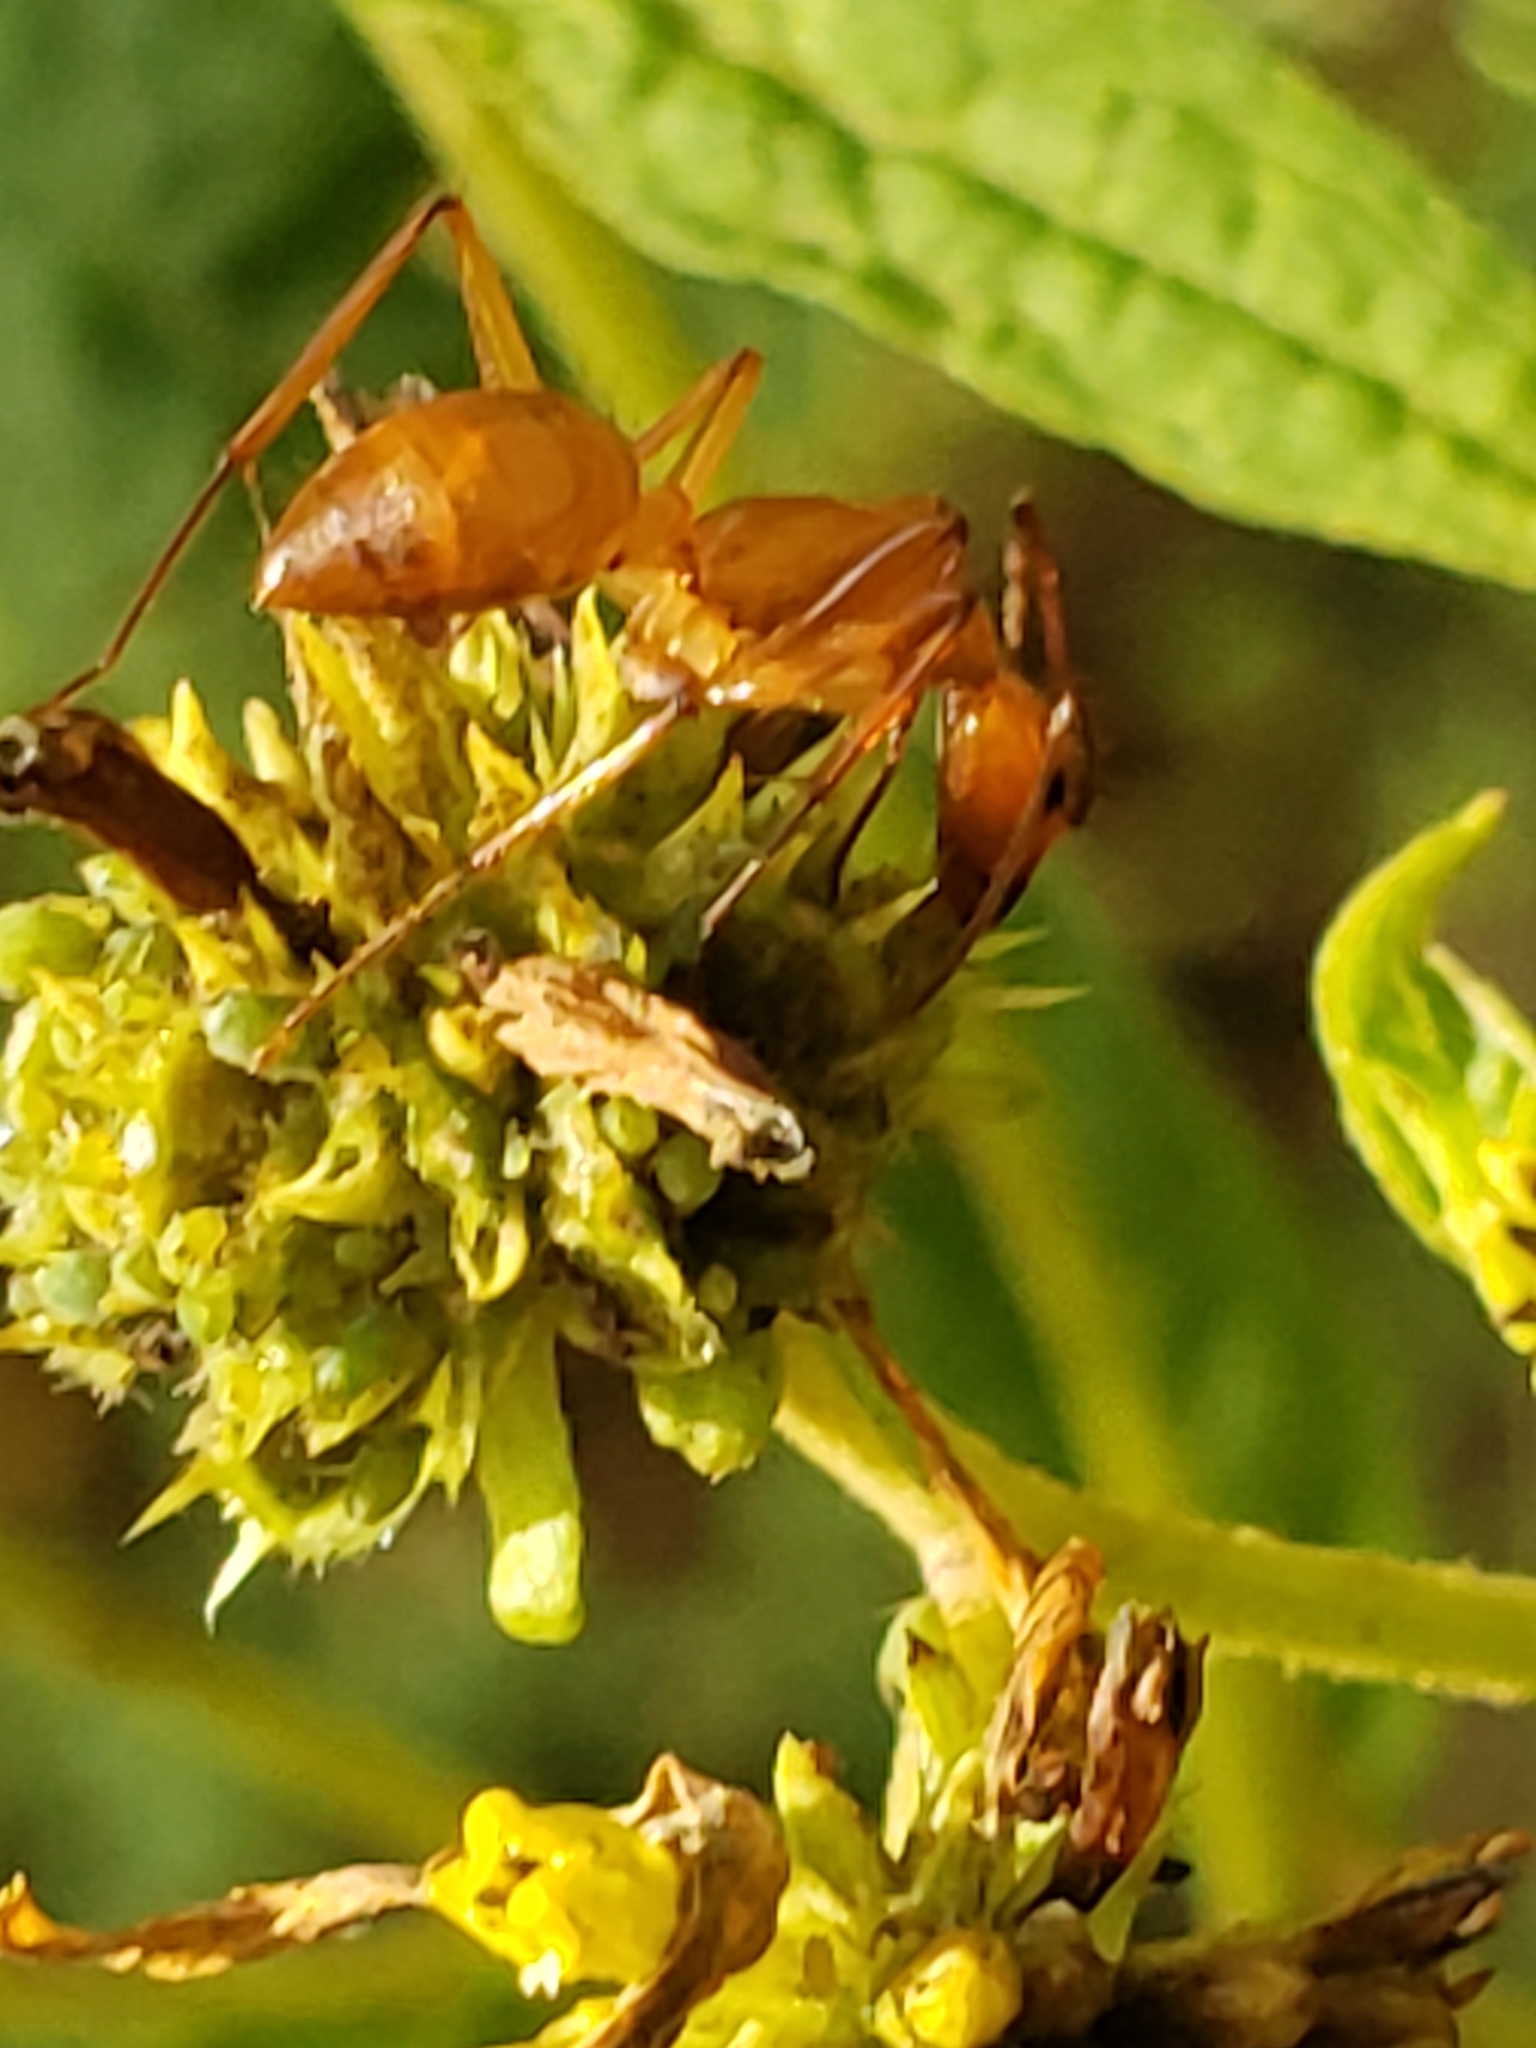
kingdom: Animalia
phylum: Arthropoda
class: Insecta
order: Hymenoptera
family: Formicidae
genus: Camponotus
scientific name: Camponotus castaneus
